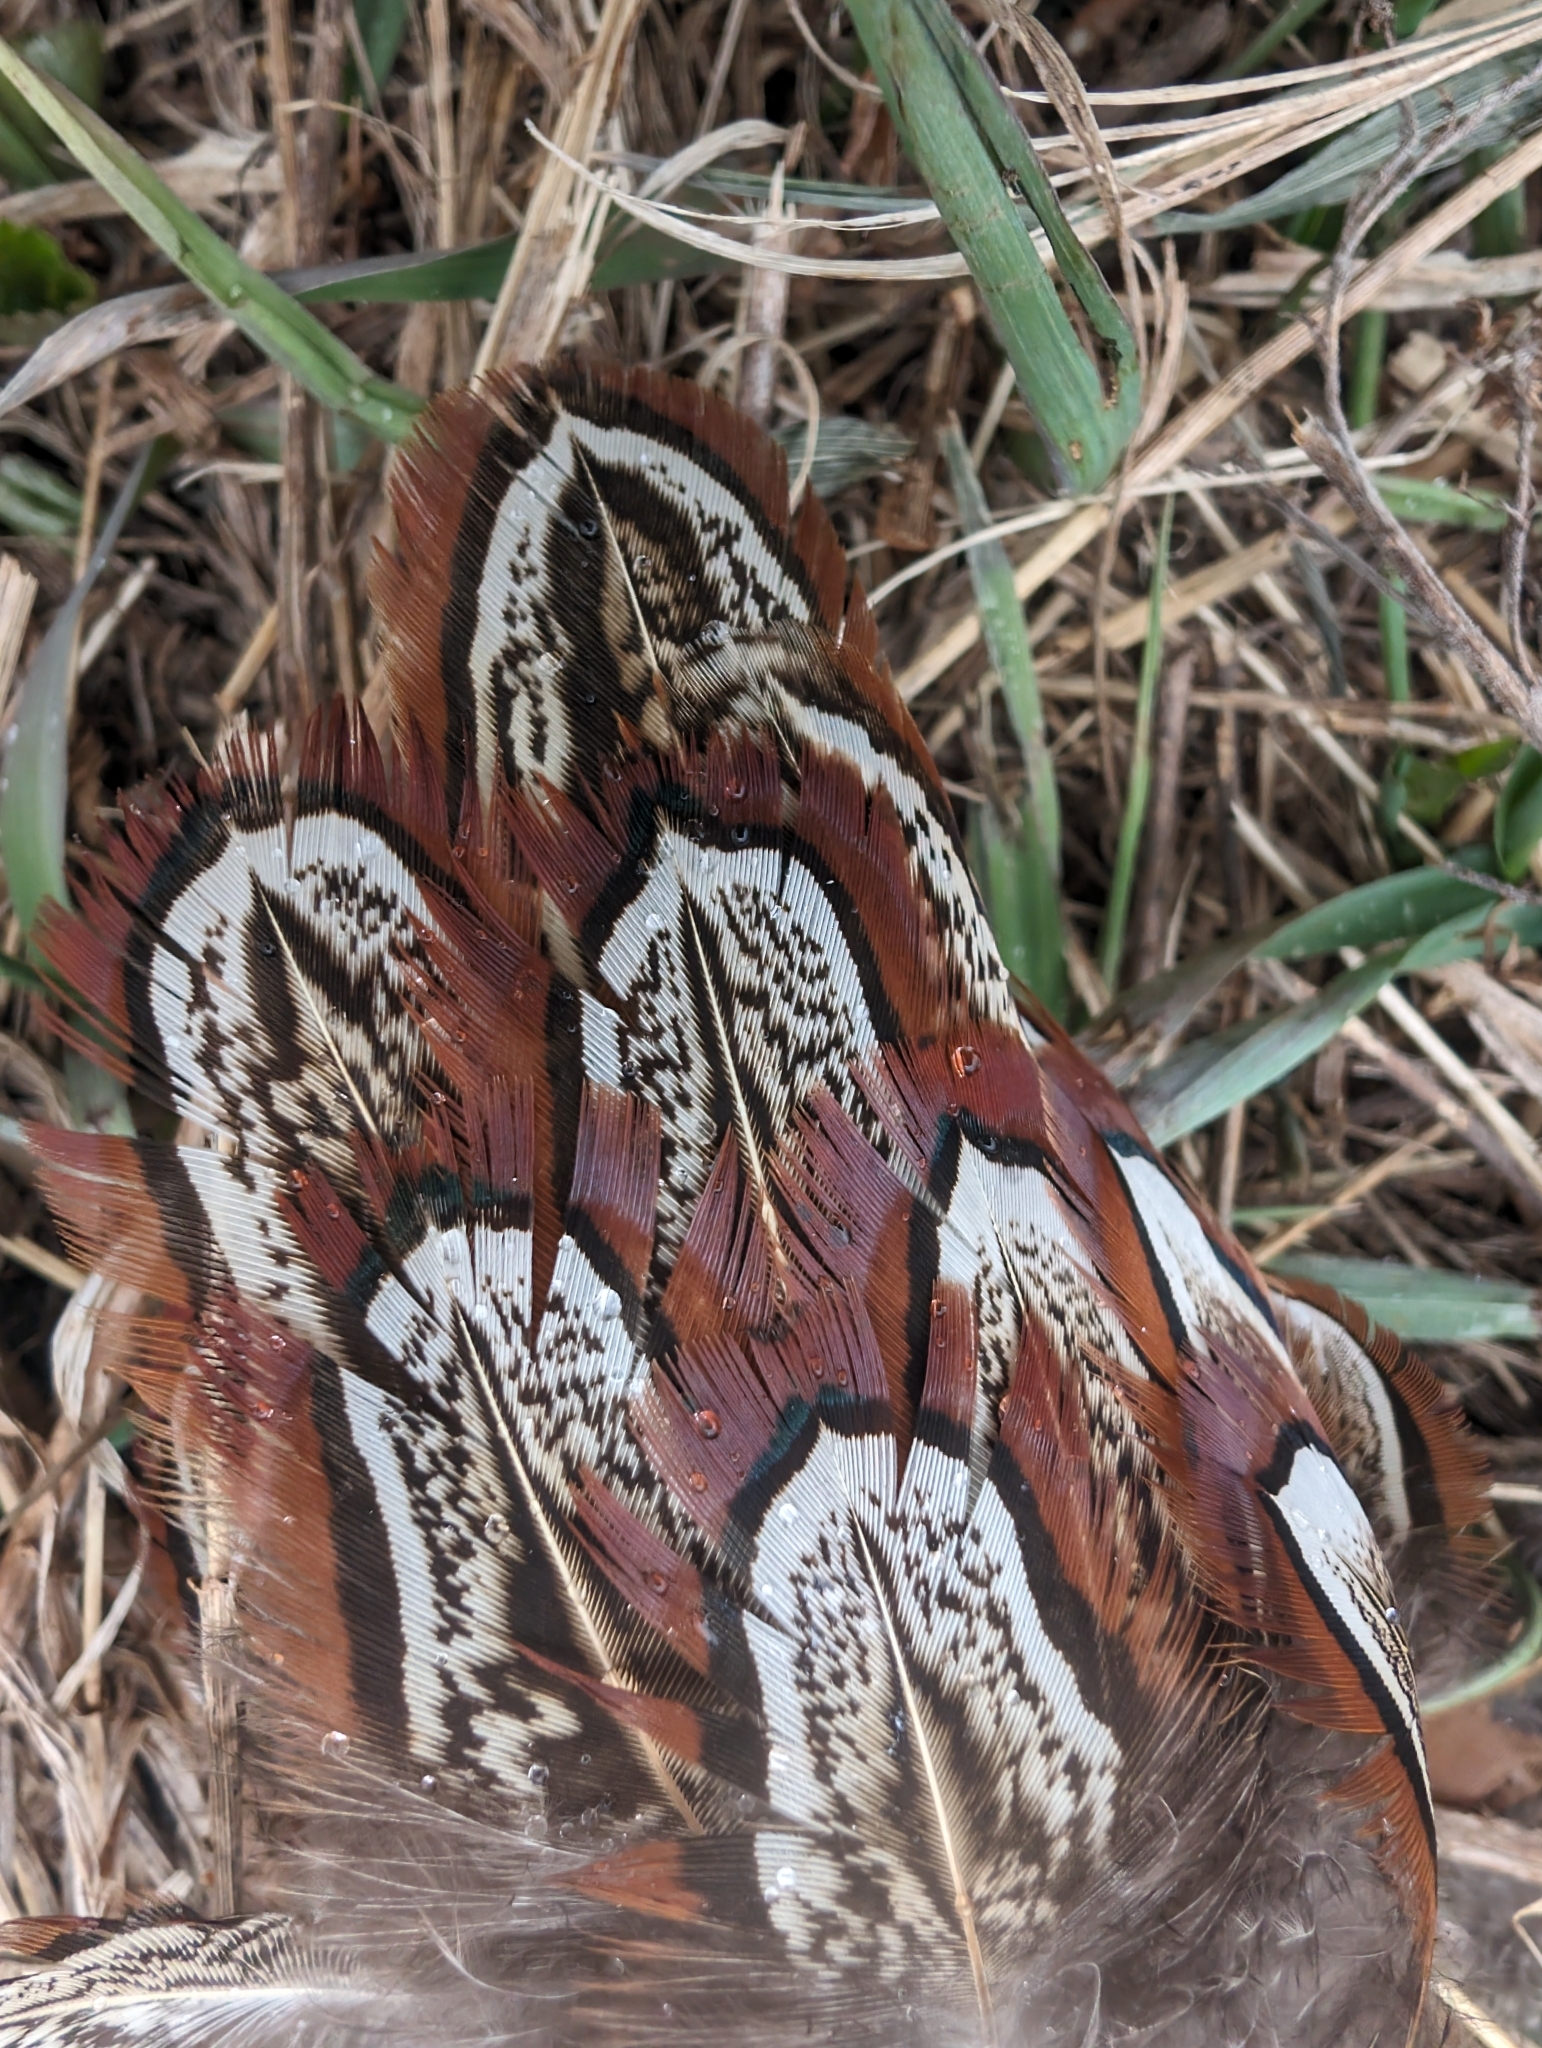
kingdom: Animalia
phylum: Chordata
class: Aves
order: Galliformes
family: Phasianidae
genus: Phasianus
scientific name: Phasianus colchicus
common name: Common pheasant
